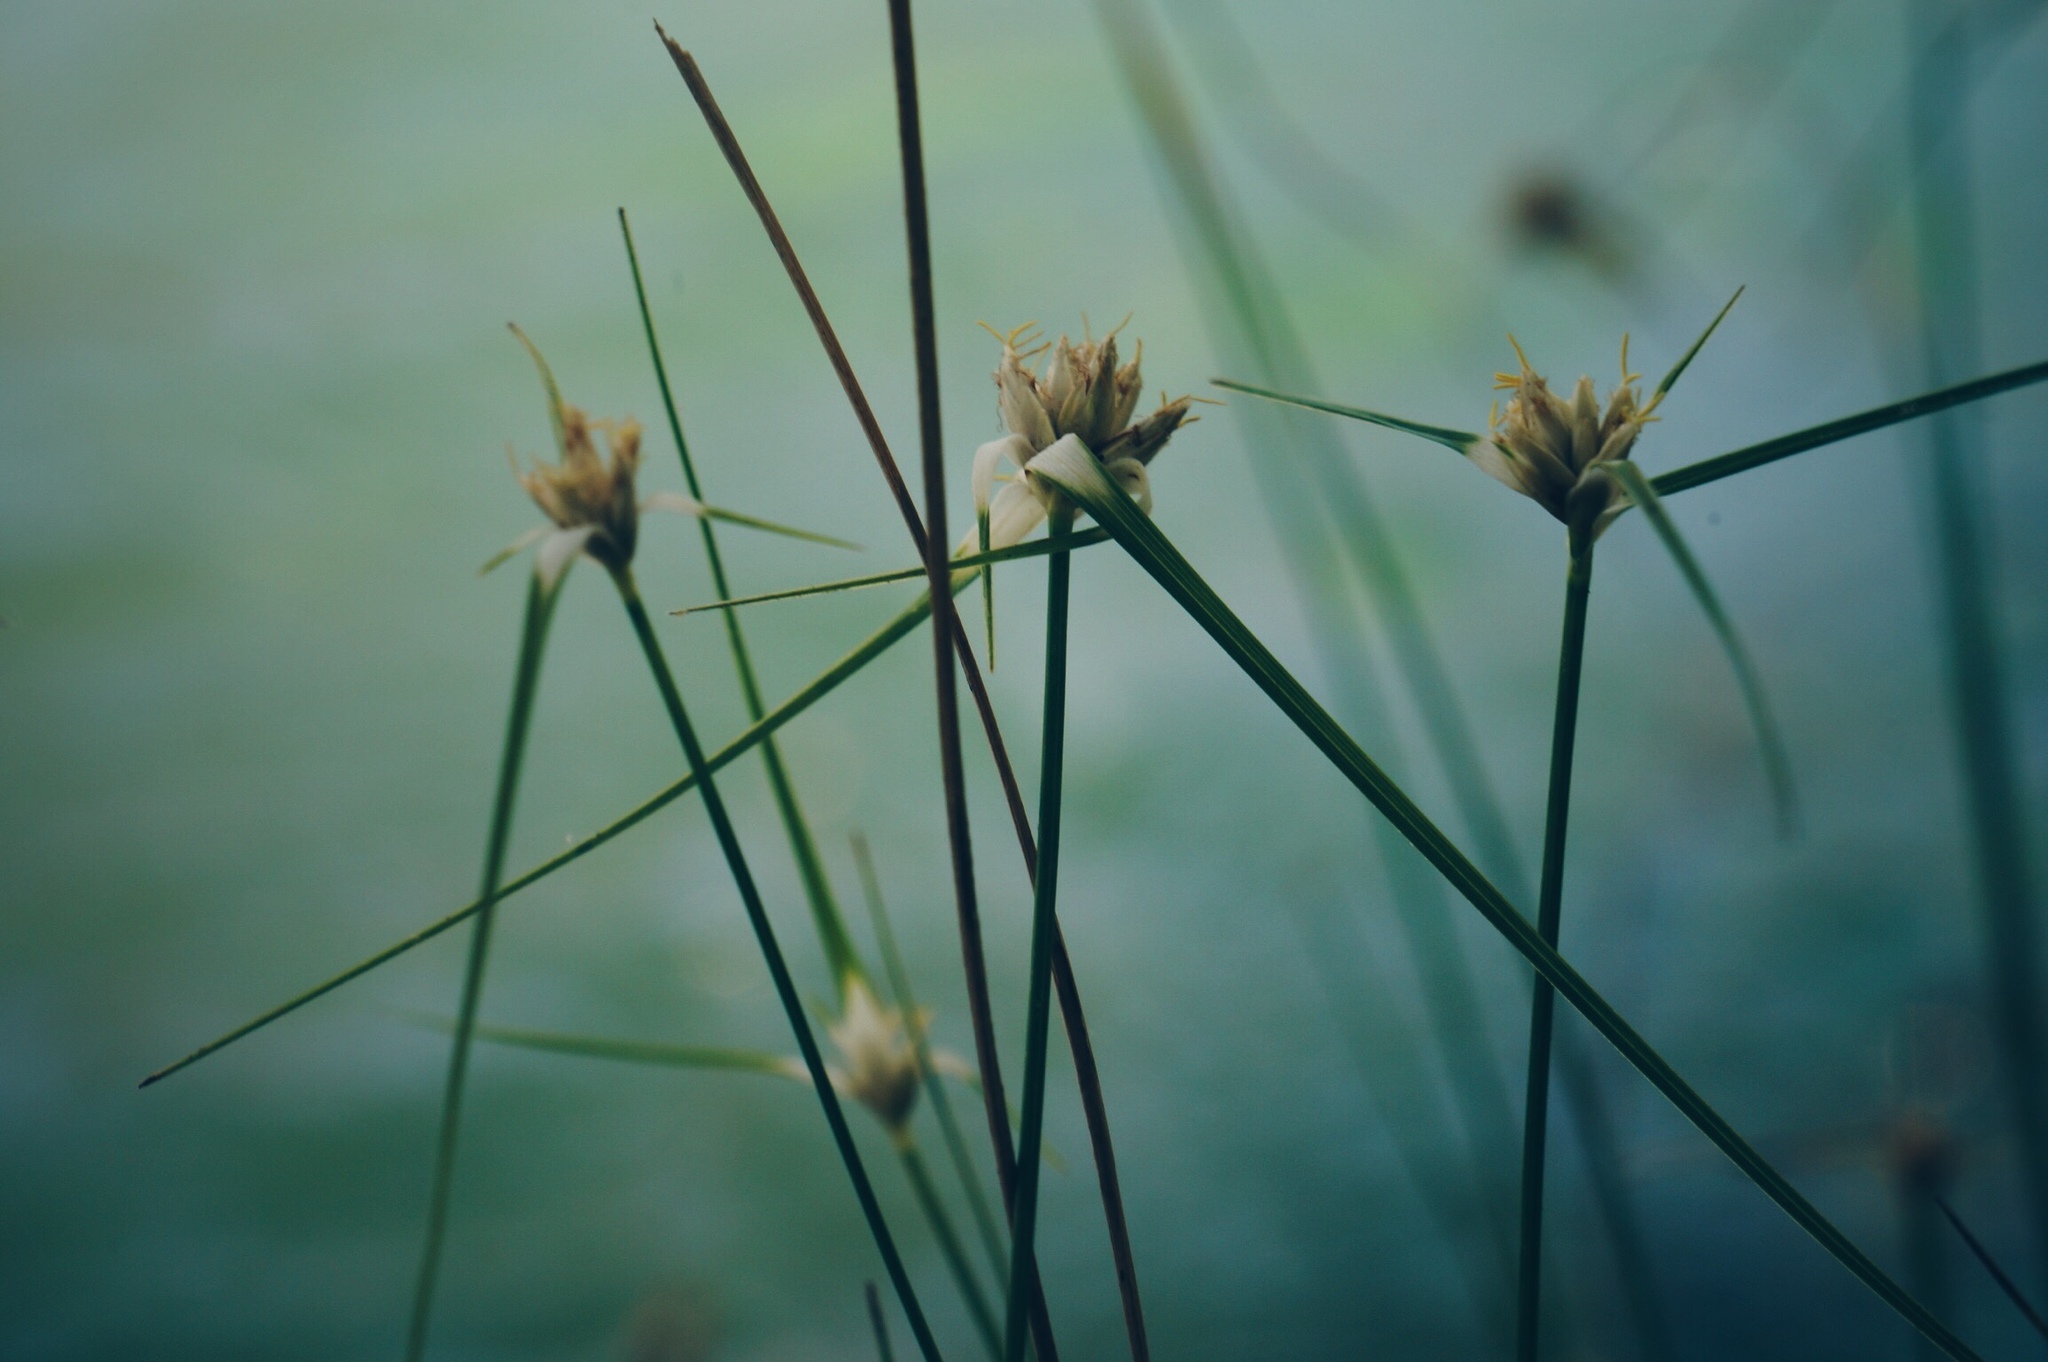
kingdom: Plantae
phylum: Tracheophyta
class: Liliopsida
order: Poales
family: Cyperaceae
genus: Rhynchospora
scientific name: Rhynchospora colorata
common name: Star sedge
